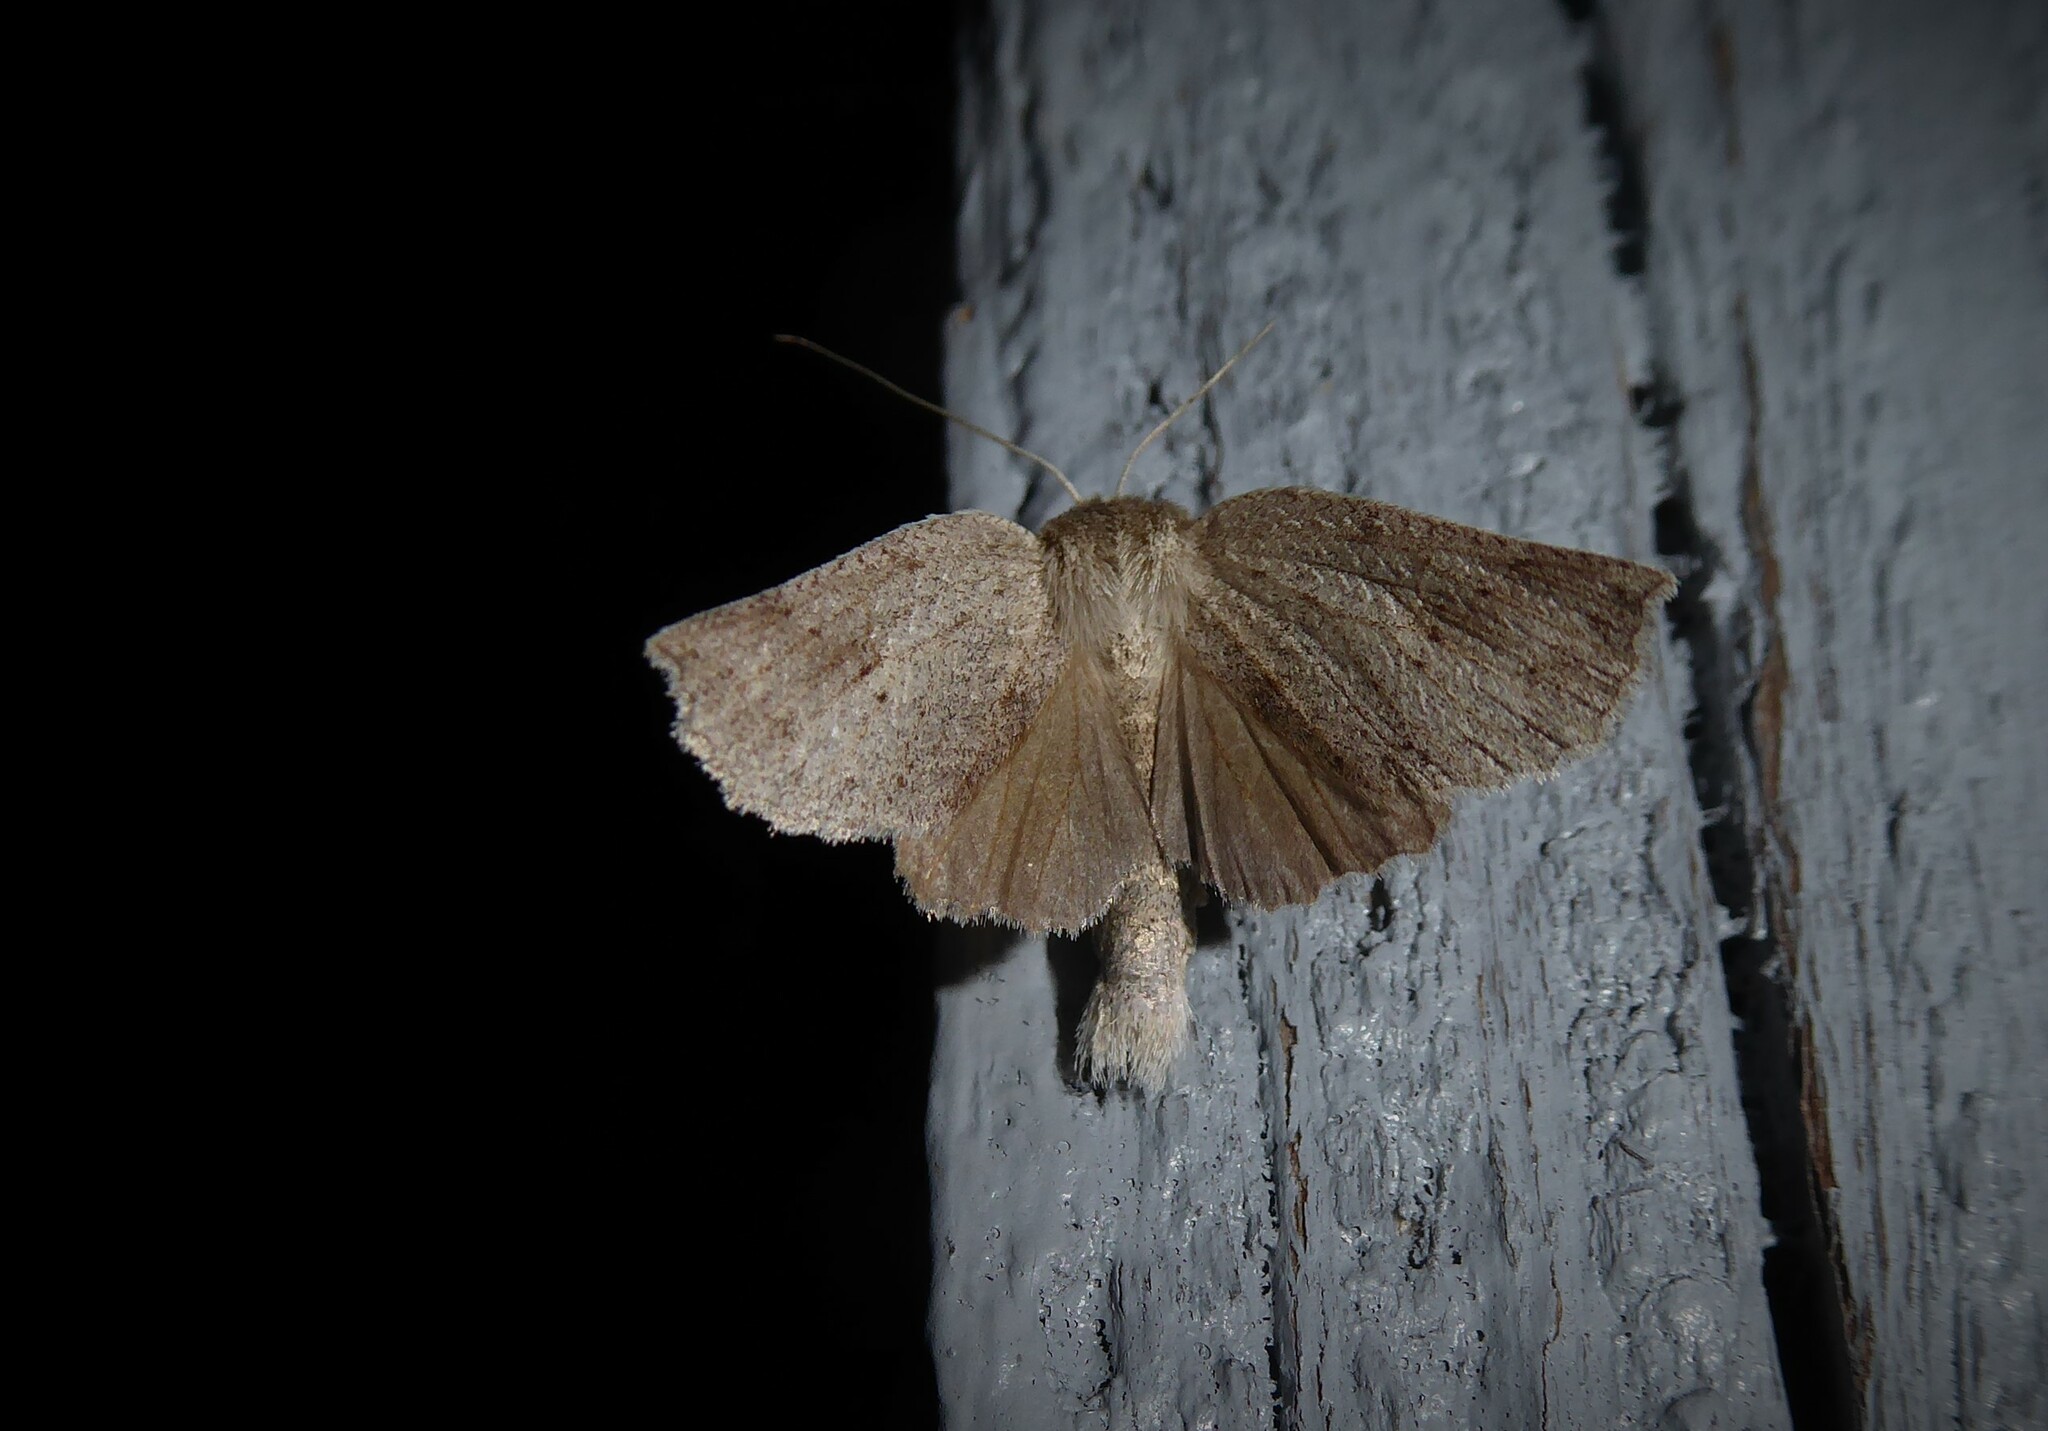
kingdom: Animalia
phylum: Arthropoda
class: Insecta
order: Lepidoptera
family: Geometridae
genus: Declana
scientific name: Declana leptomera
